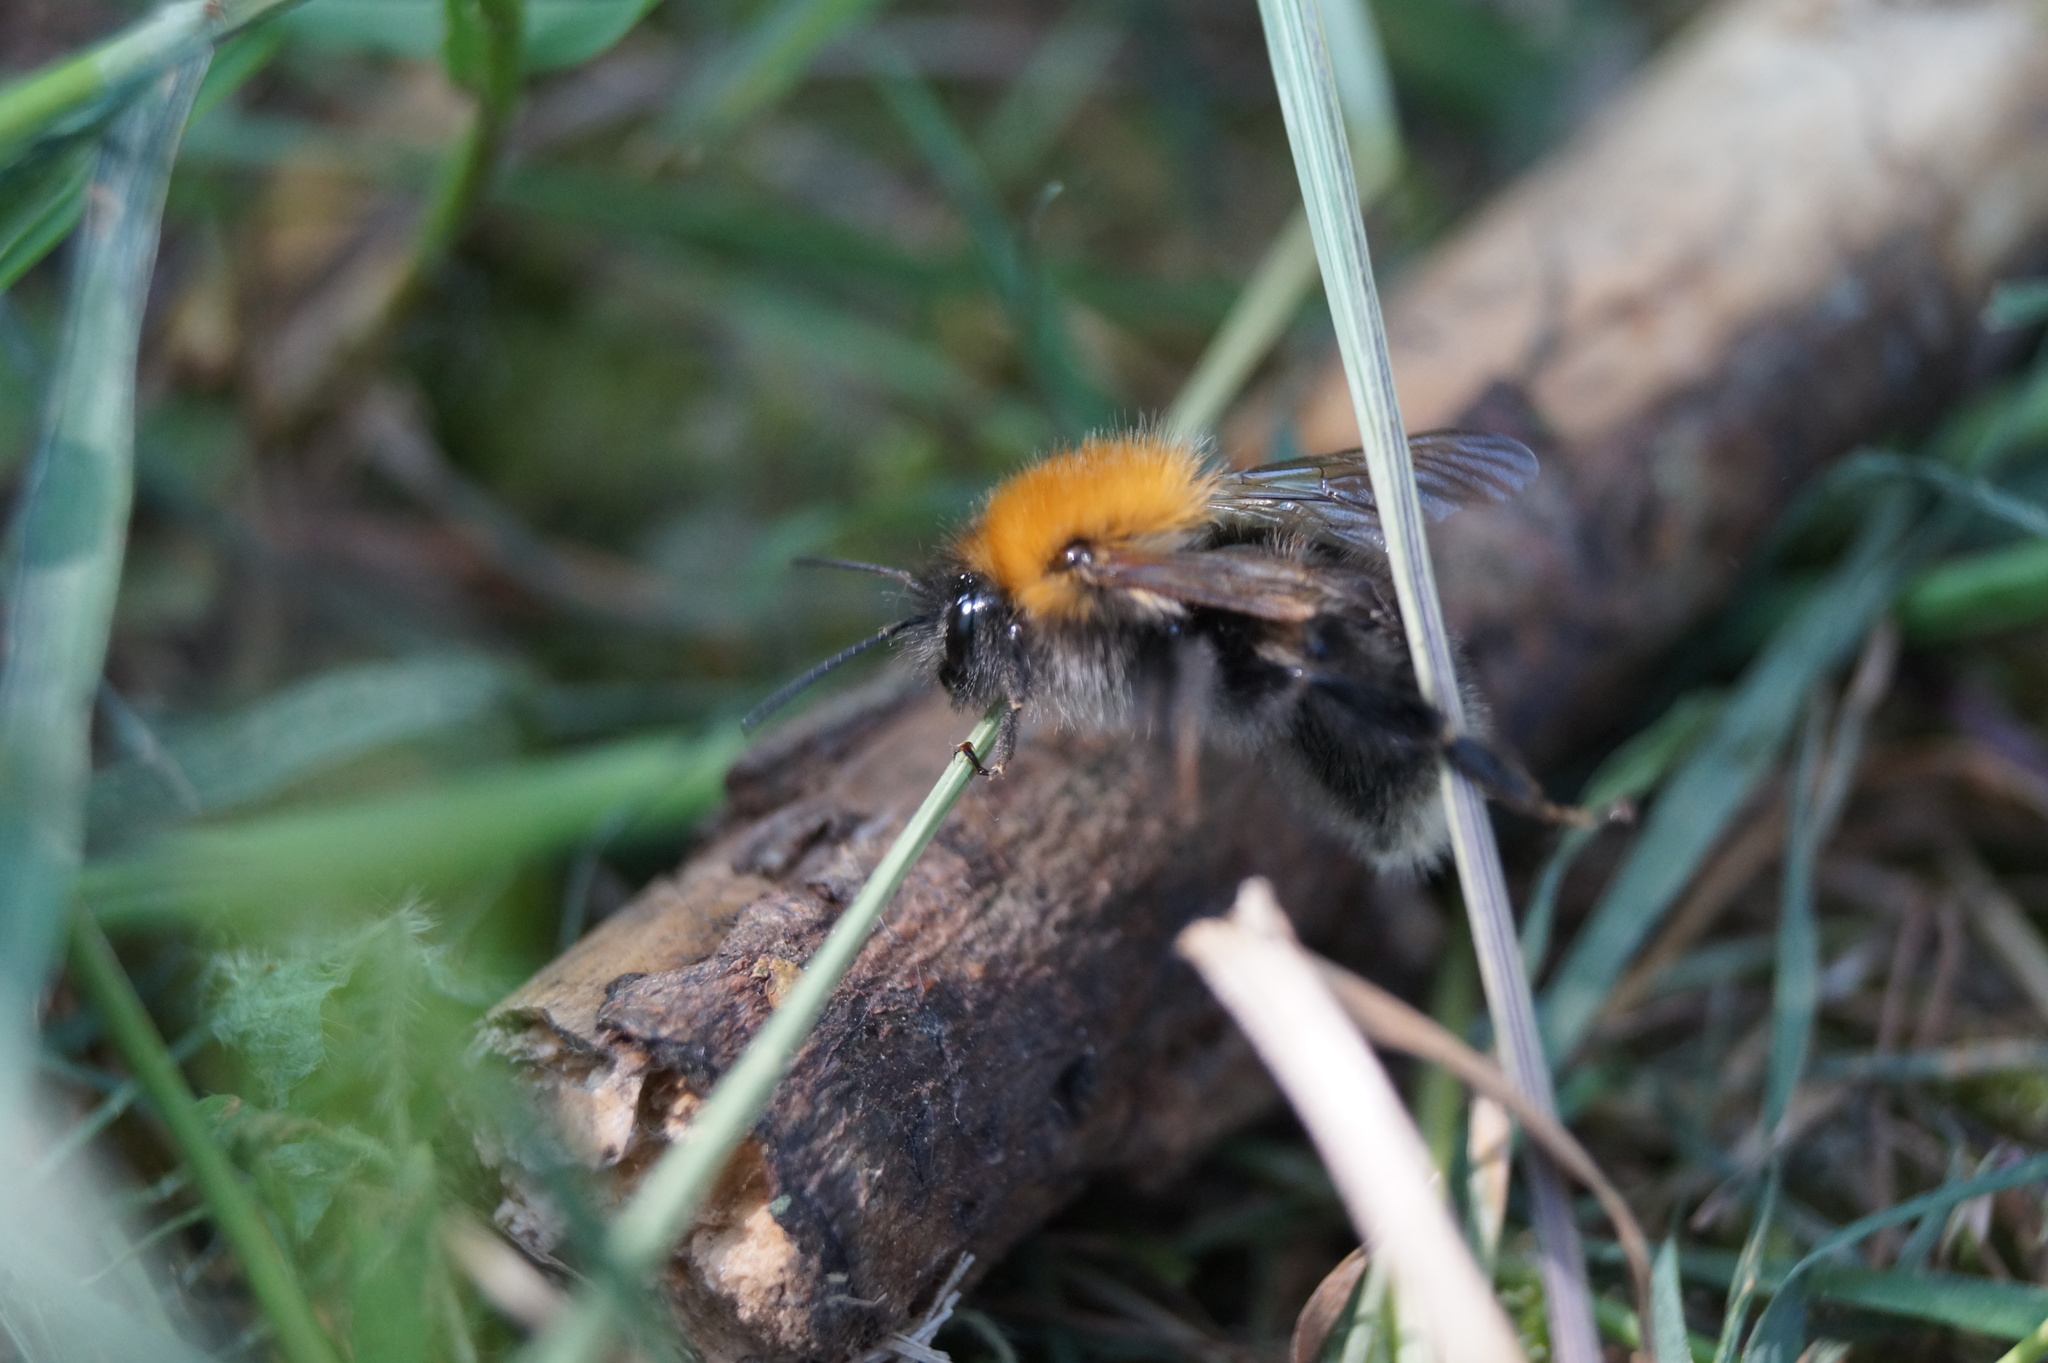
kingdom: Animalia
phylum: Arthropoda
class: Insecta
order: Hymenoptera
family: Apidae
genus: Bombus
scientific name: Bombus hypnorum
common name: New garden bumblebee
